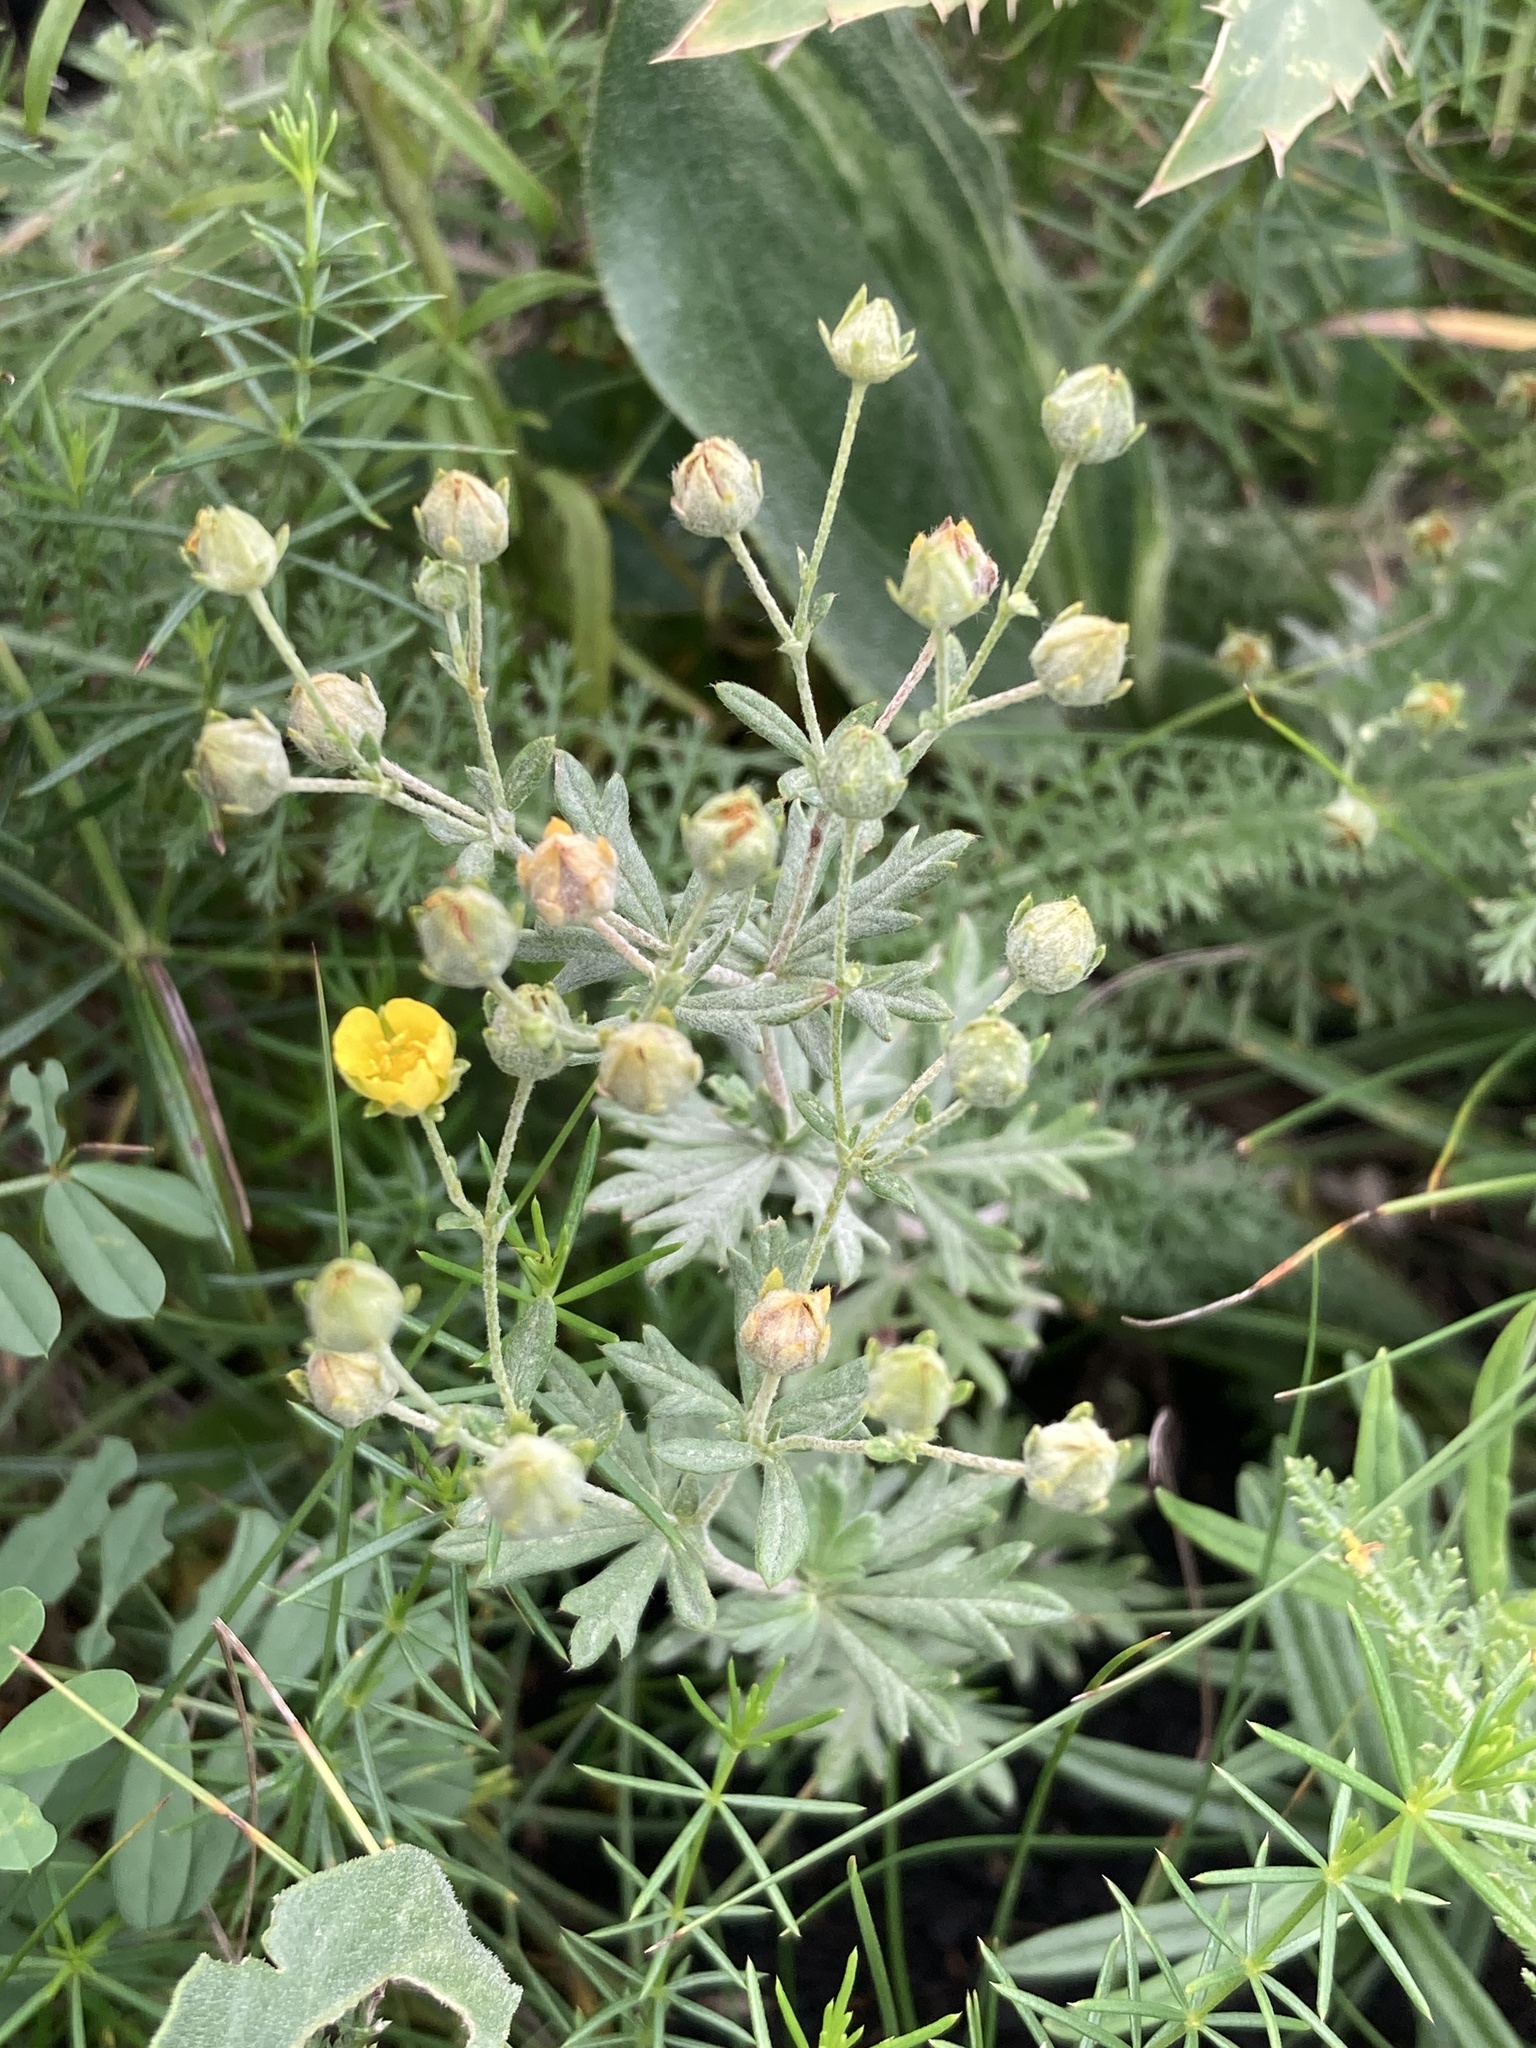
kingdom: Plantae
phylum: Tracheophyta
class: Magnoliopsida
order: Rosales
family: Rosaceae
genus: Potentilla
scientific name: Potentilla argentea
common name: Hoary cinquefoil
